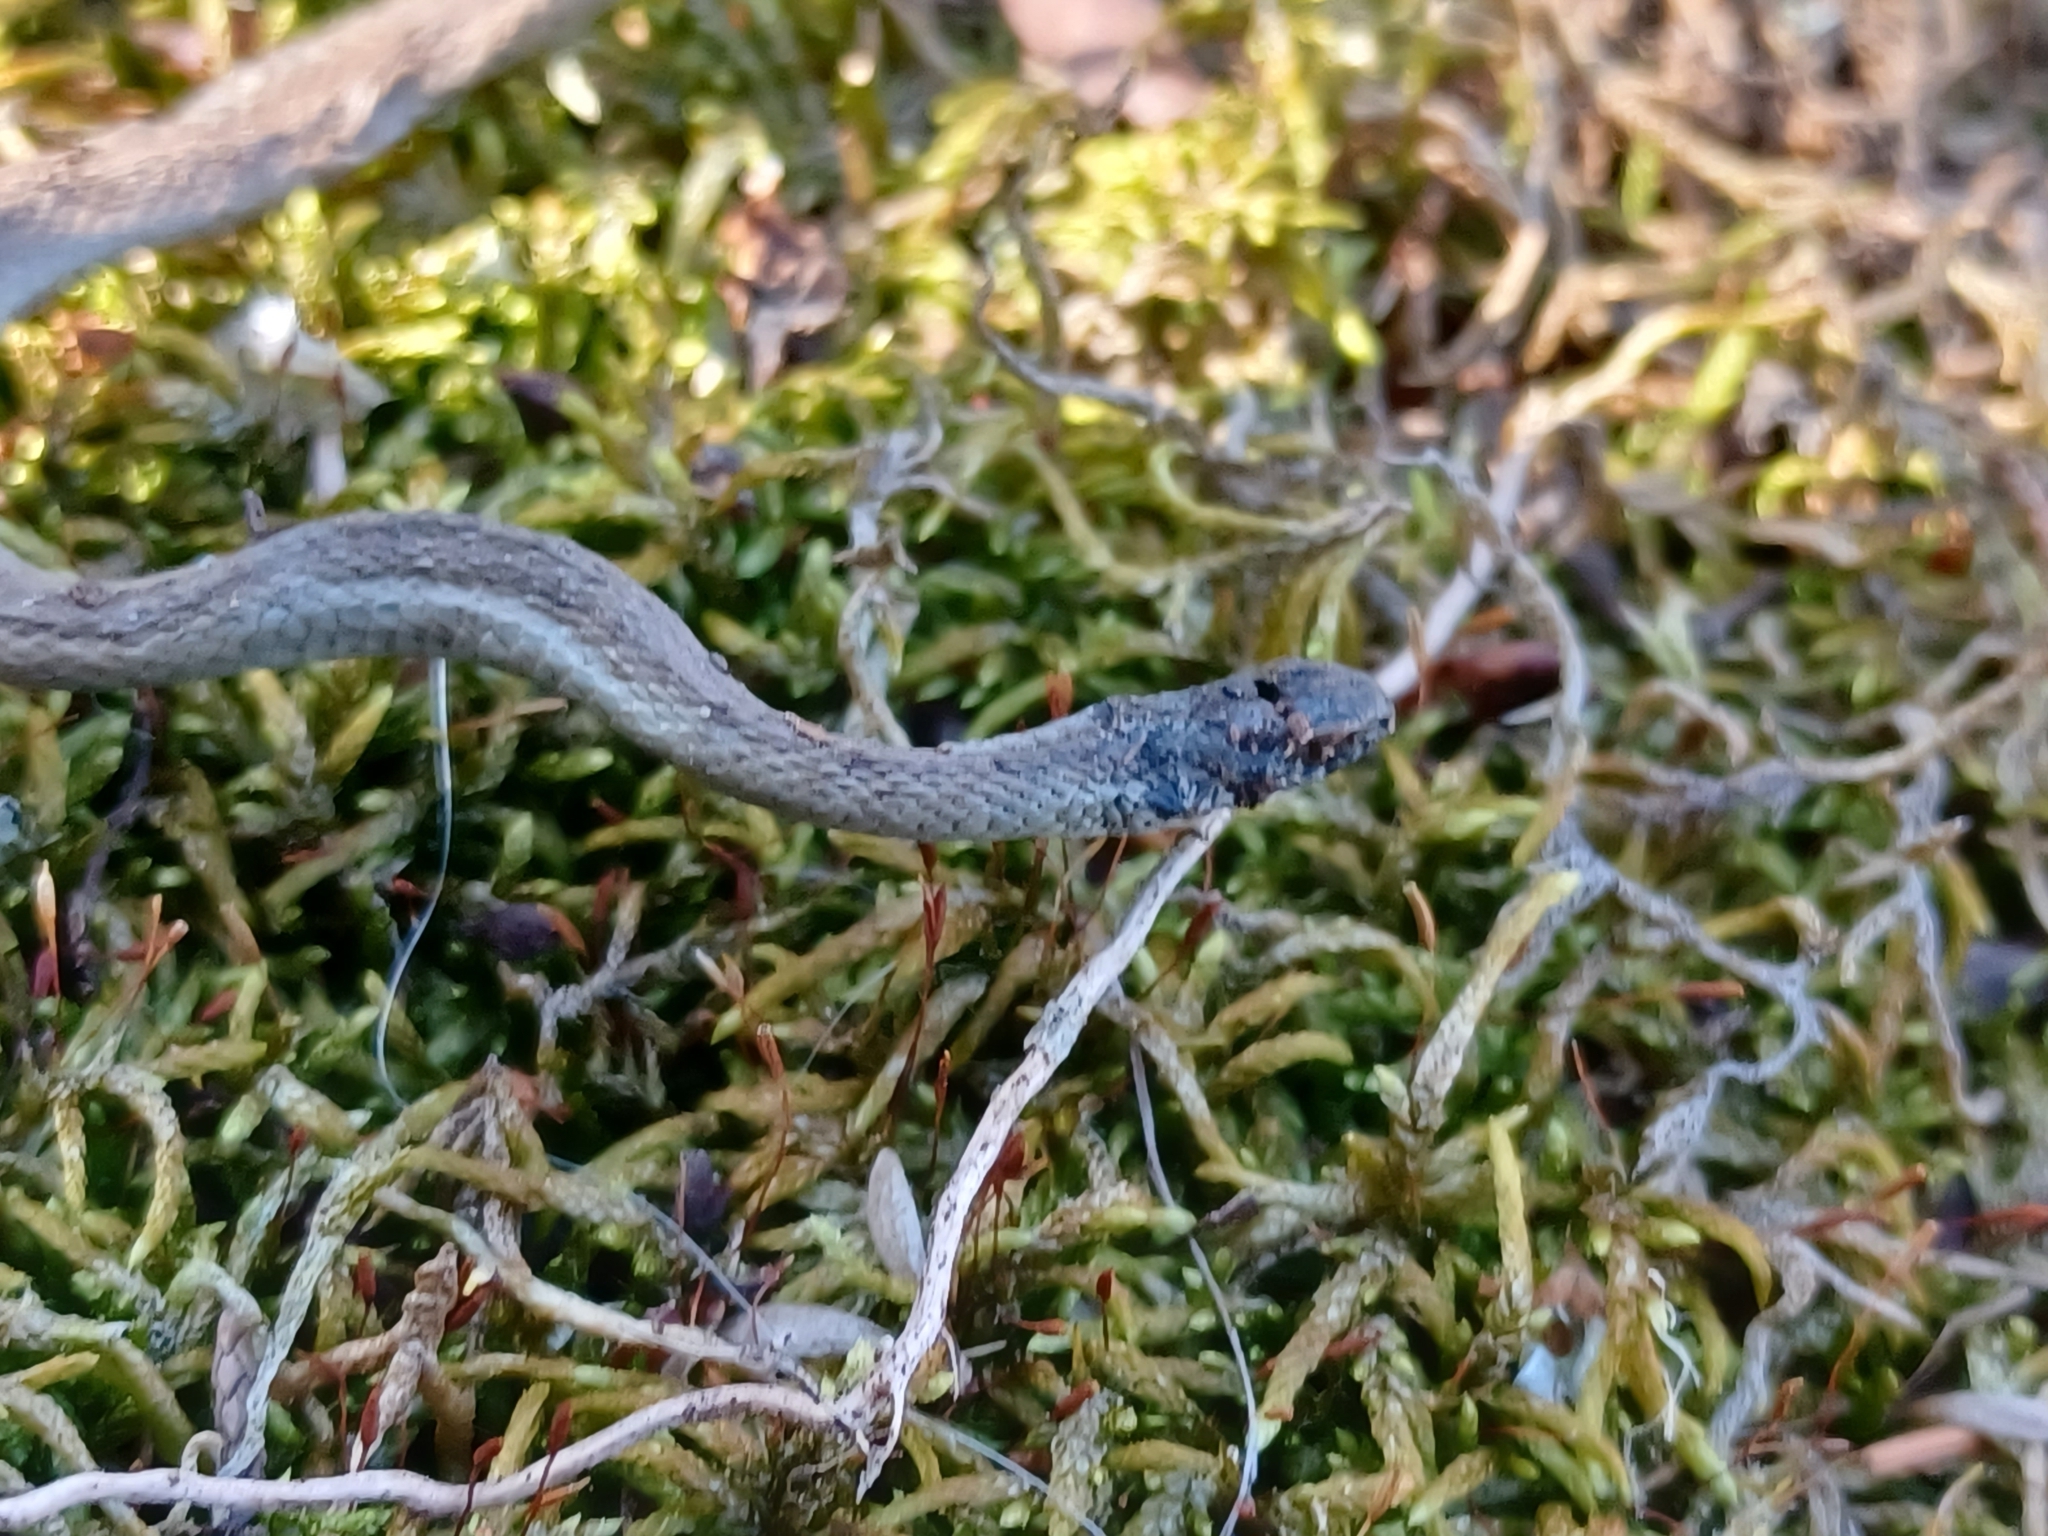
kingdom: Animalia
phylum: Chordata
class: Squamata
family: Colubridae
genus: Storeria
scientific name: Storeria dekayi
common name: (dekay’s) brown snake
